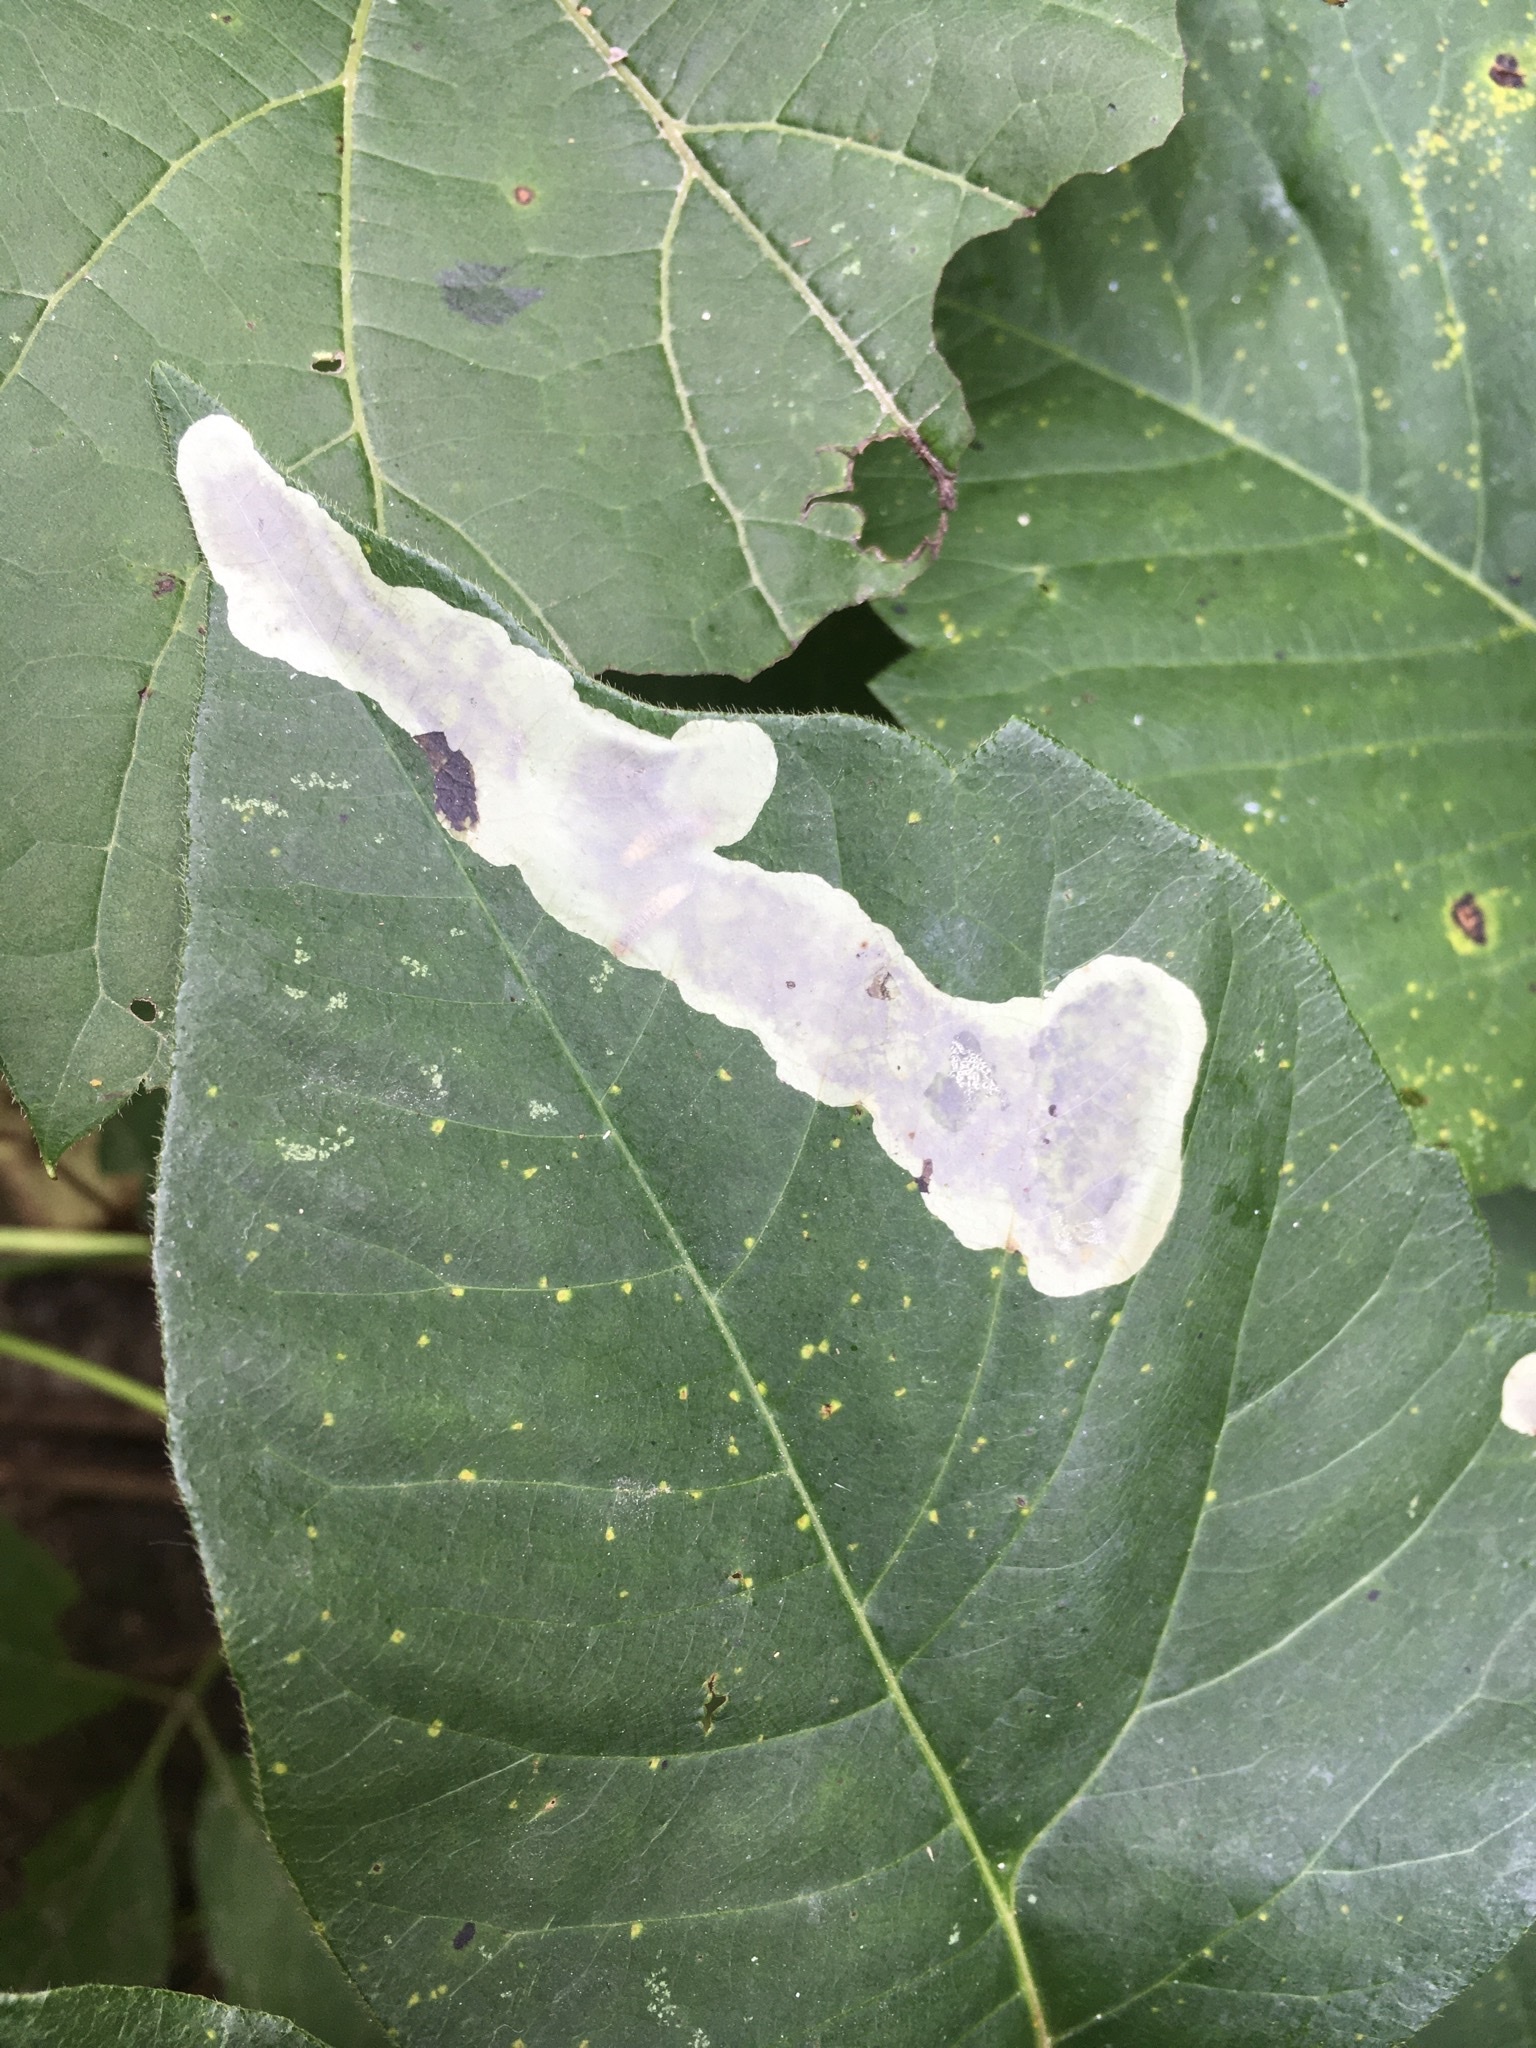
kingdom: Animalia
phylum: Arthropoda
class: Insecta
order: Lepidoptera
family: Gracillariidae
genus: Cameraria
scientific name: Cameraria guttifinitella
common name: Poison ivy leaf-miner moth
